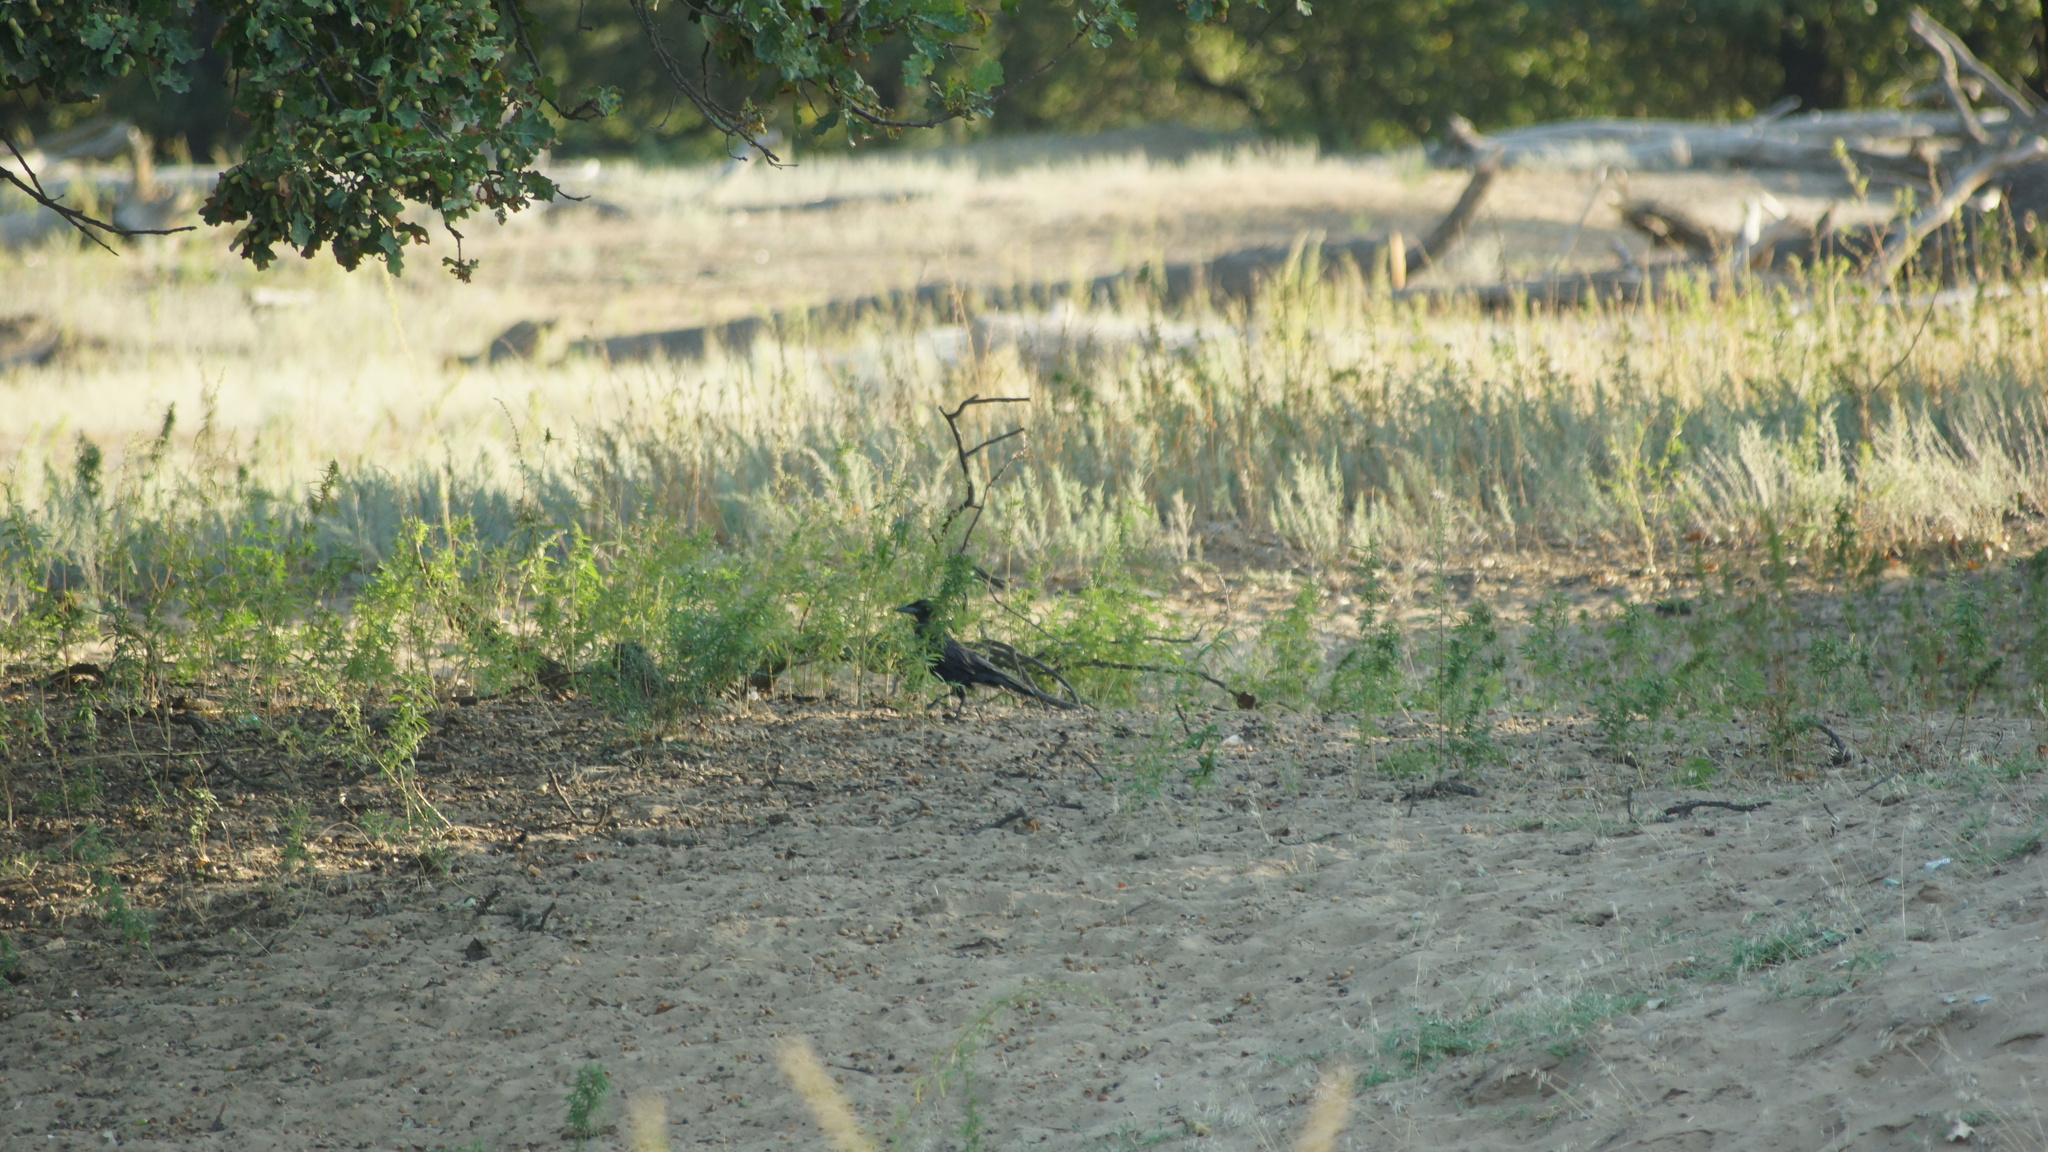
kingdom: Animalia
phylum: Chordata
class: Aves
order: Passeriformes
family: Corvidae
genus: Corvus
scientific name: Corvus frugilegus
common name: Rook
